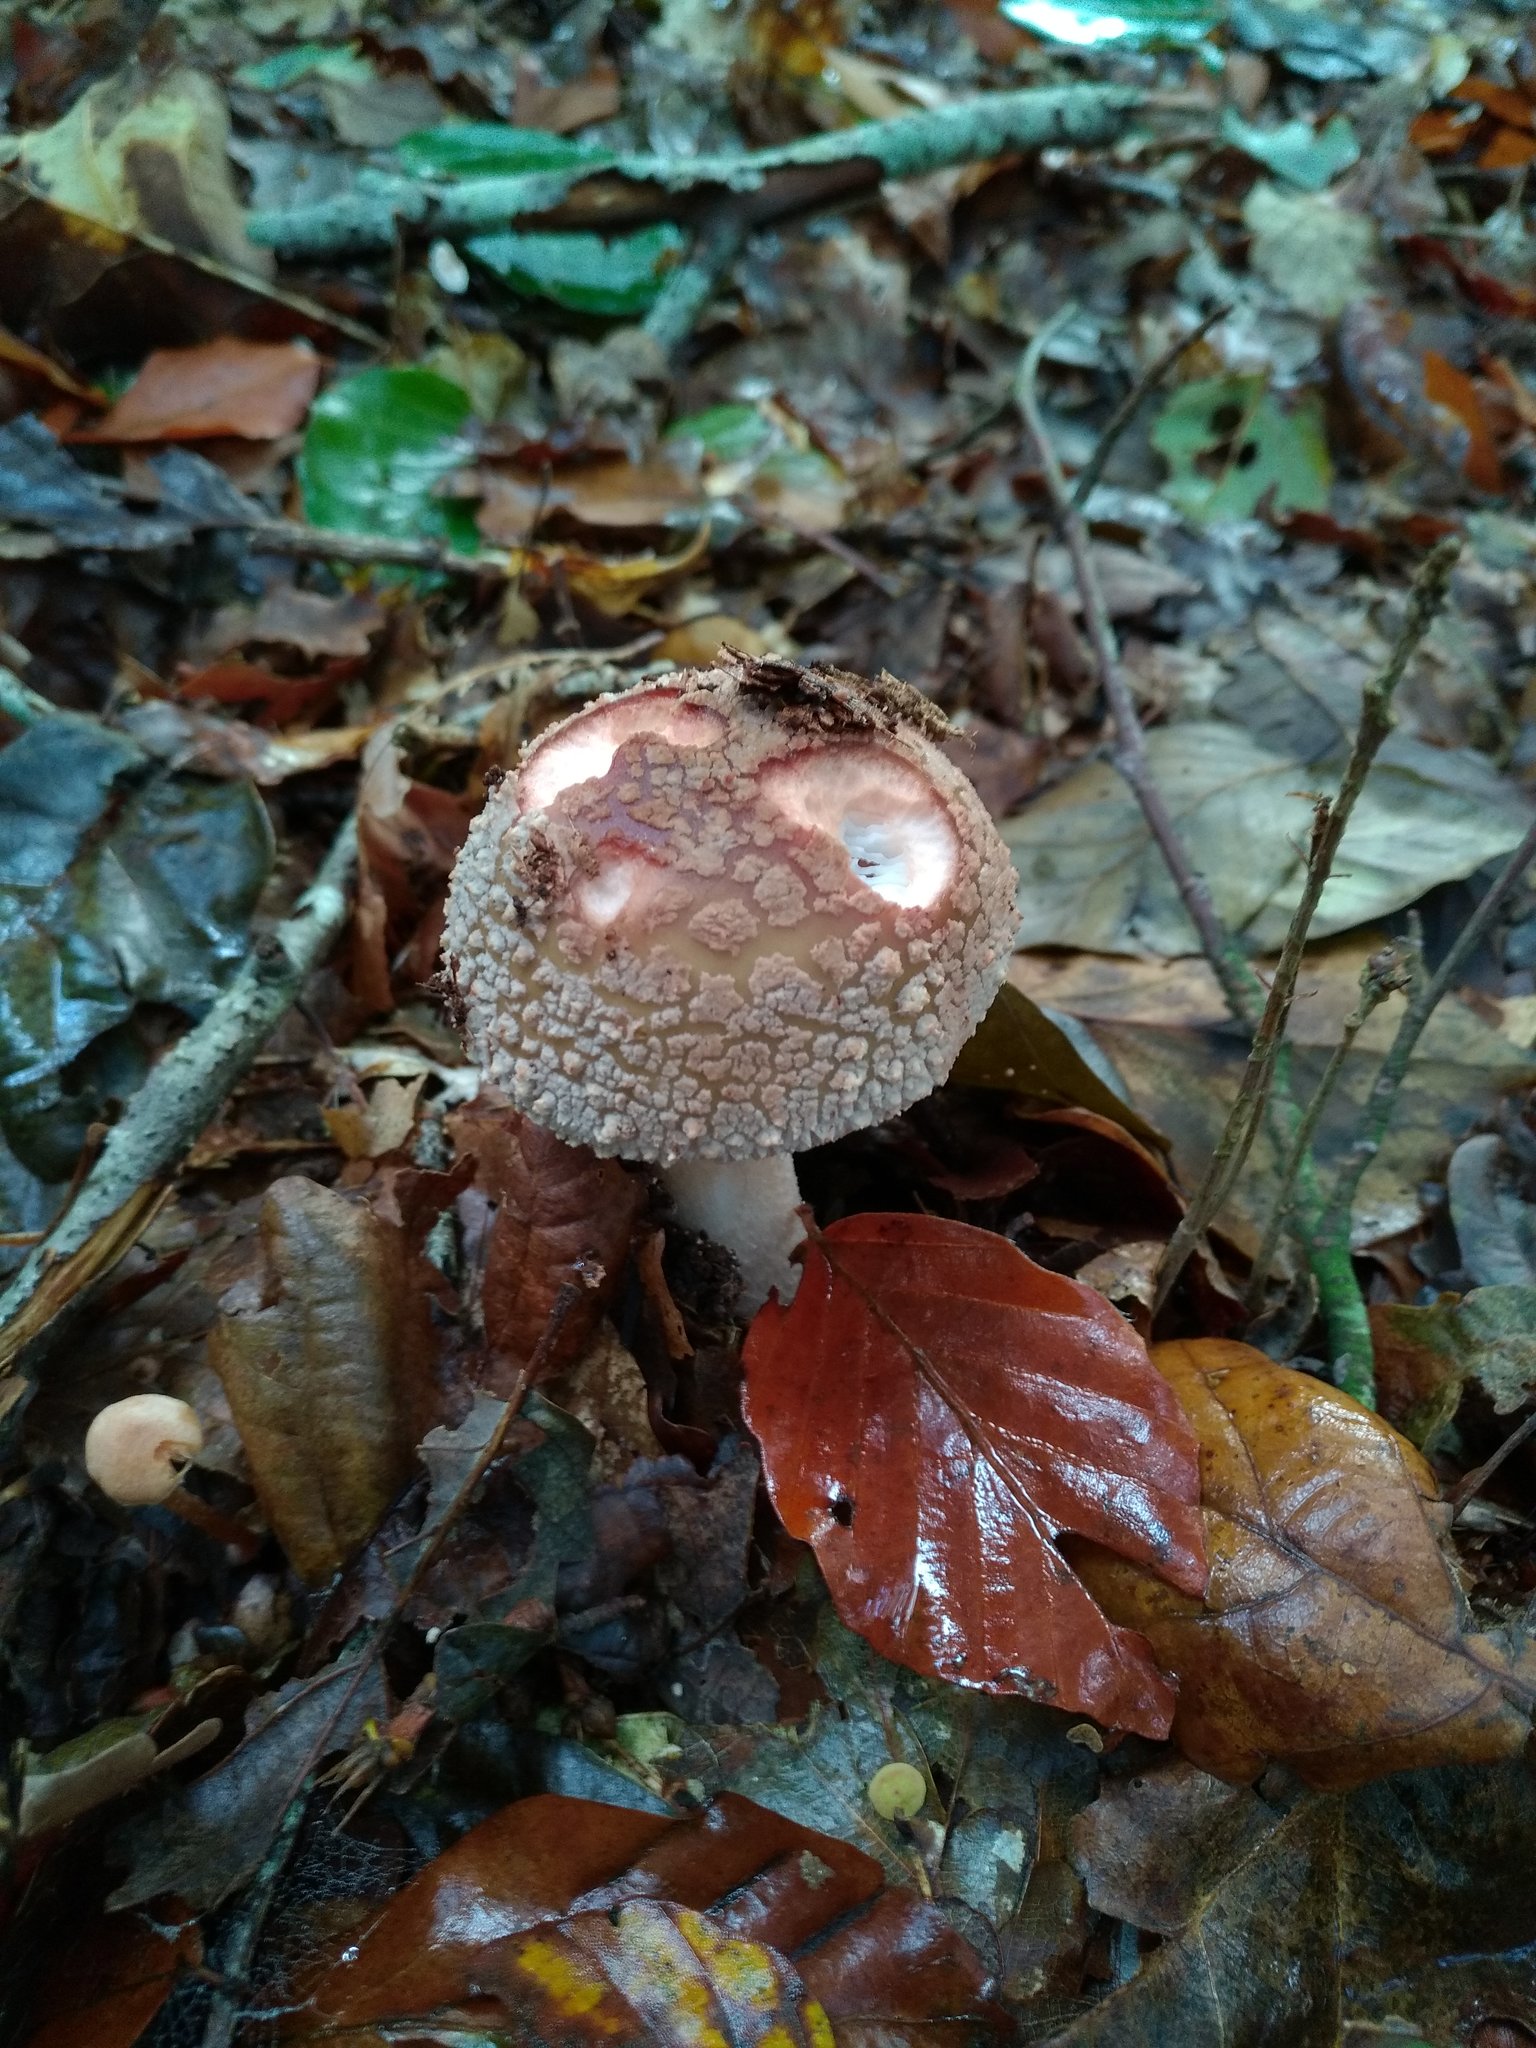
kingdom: Fungi
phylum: Basidiomycota
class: Agaricomycetes
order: Agaricales
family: Amanitaceae
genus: Amanita
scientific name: Amanita rubescens
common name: Blusher
